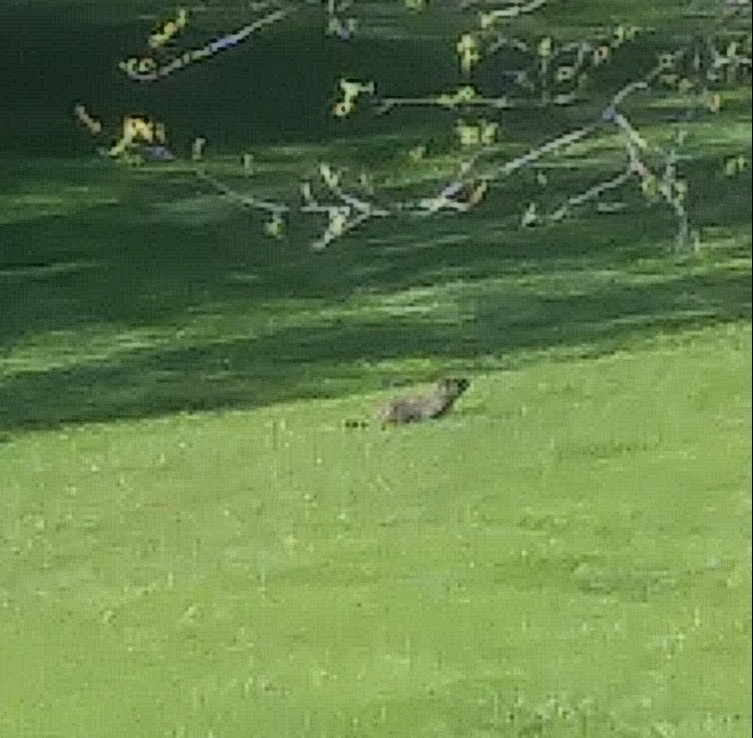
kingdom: Animalia
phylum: Chordata
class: Mammalia
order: Rodentia
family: Sciuridae
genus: Marmota
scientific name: Marmota monax
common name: Groundhog
